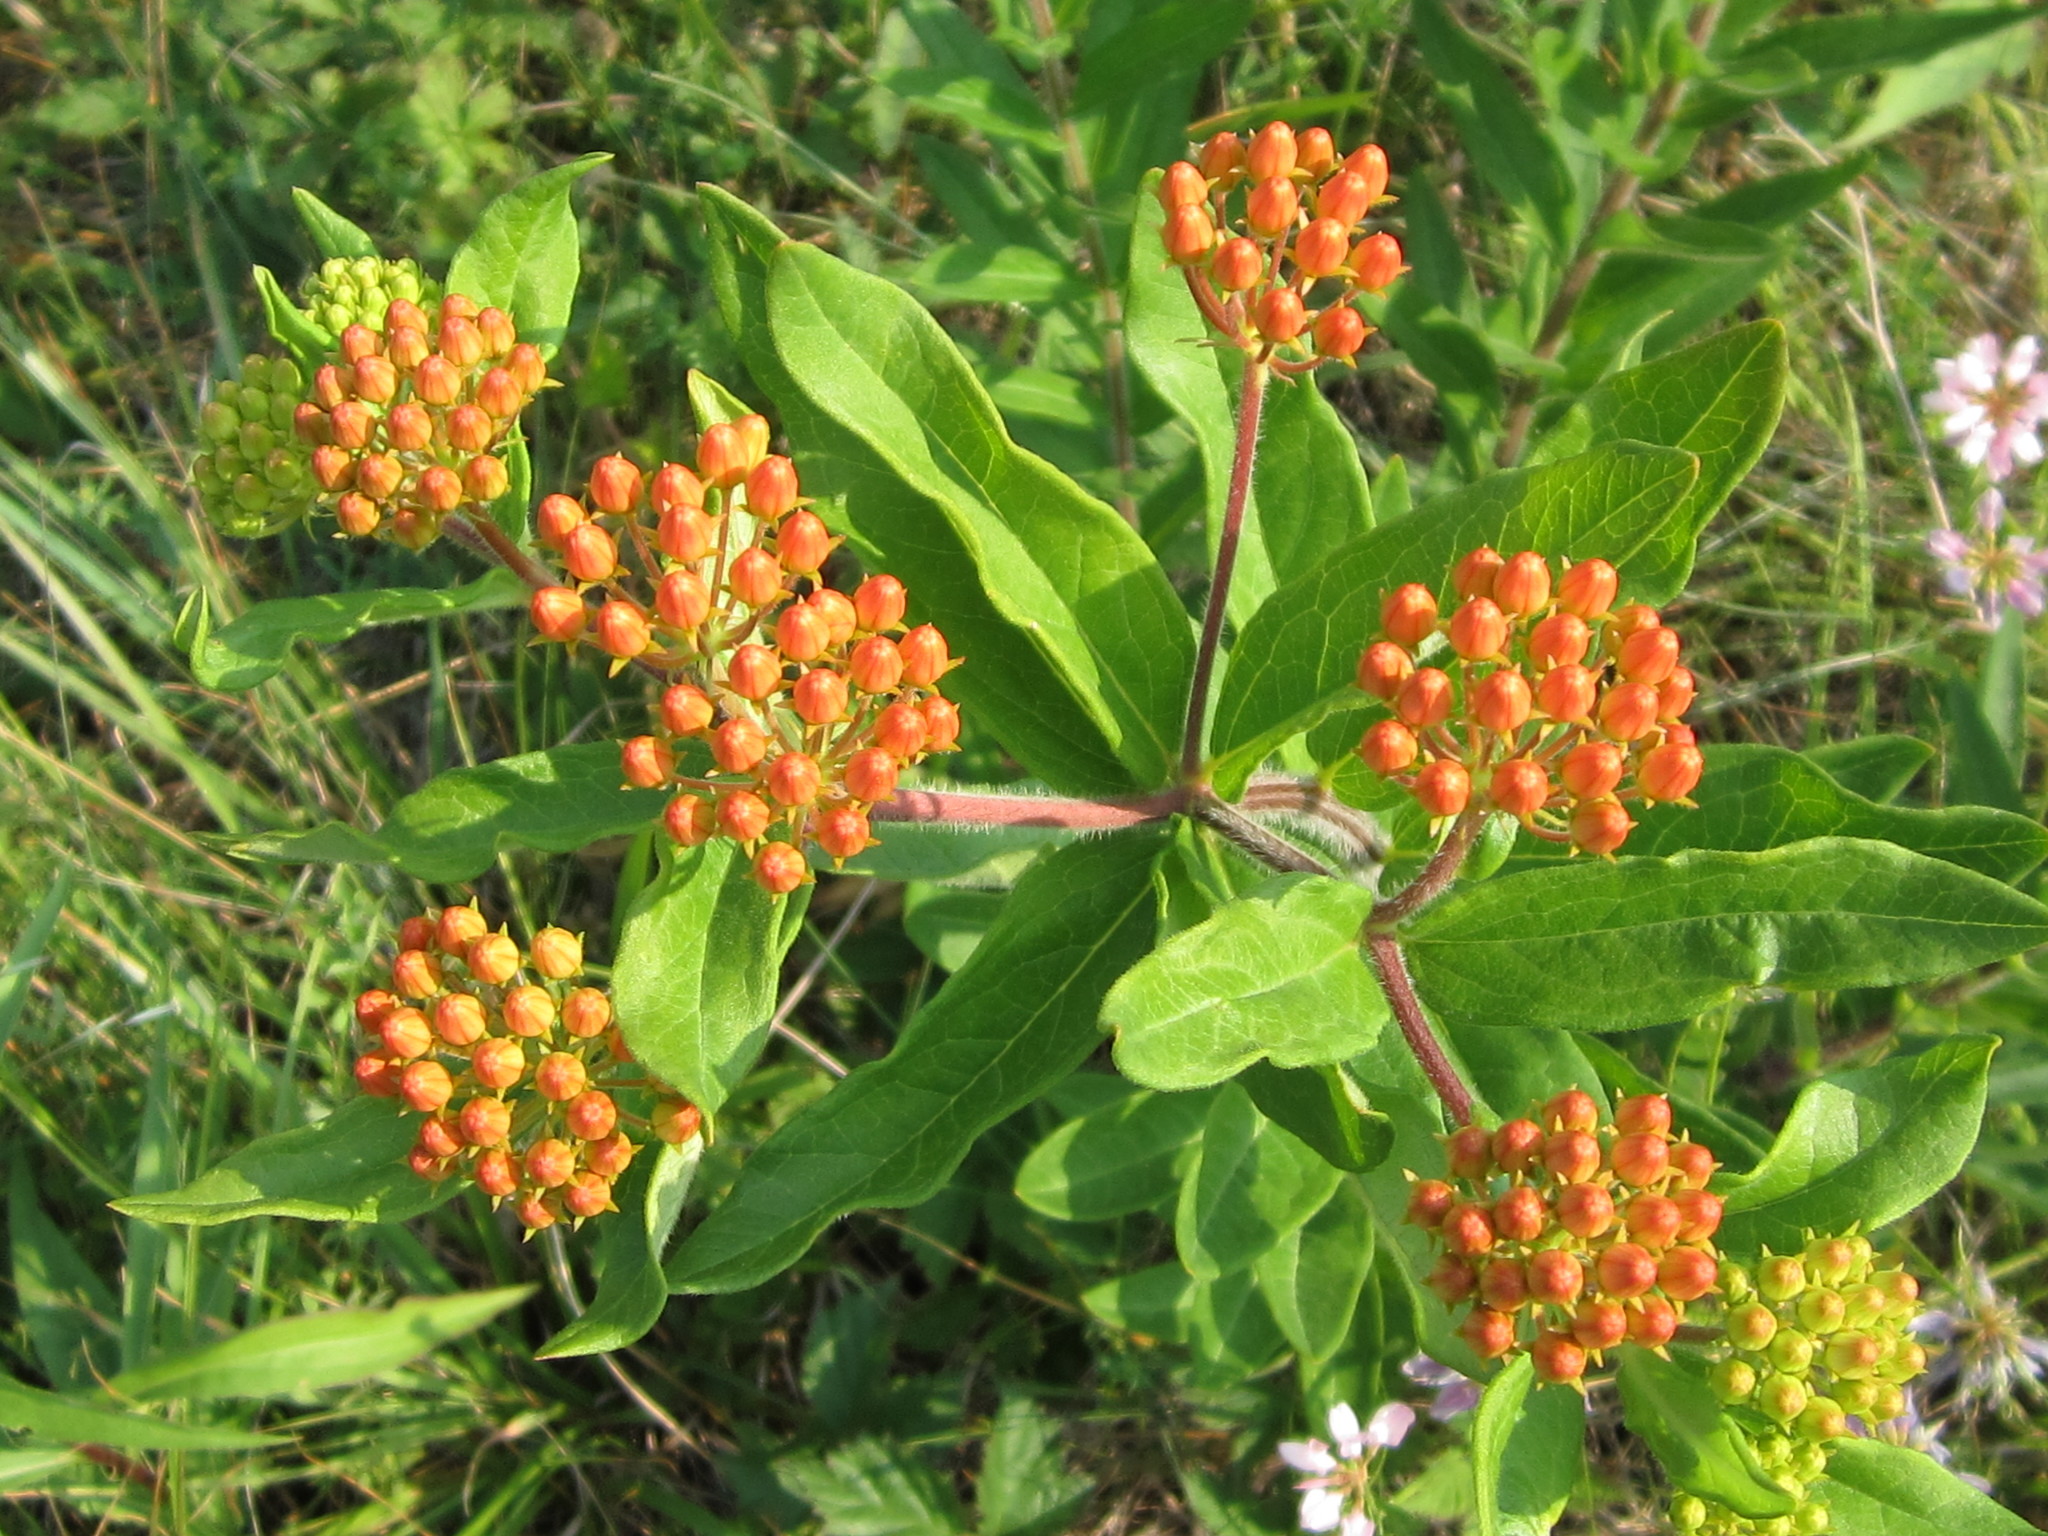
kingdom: Plantae
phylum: Tracheophyta
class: Magnoliopsida
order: Gentianales
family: Apocynaceae
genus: Asclepias
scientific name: Asclepias tuberosa
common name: Butterfly milkweed
